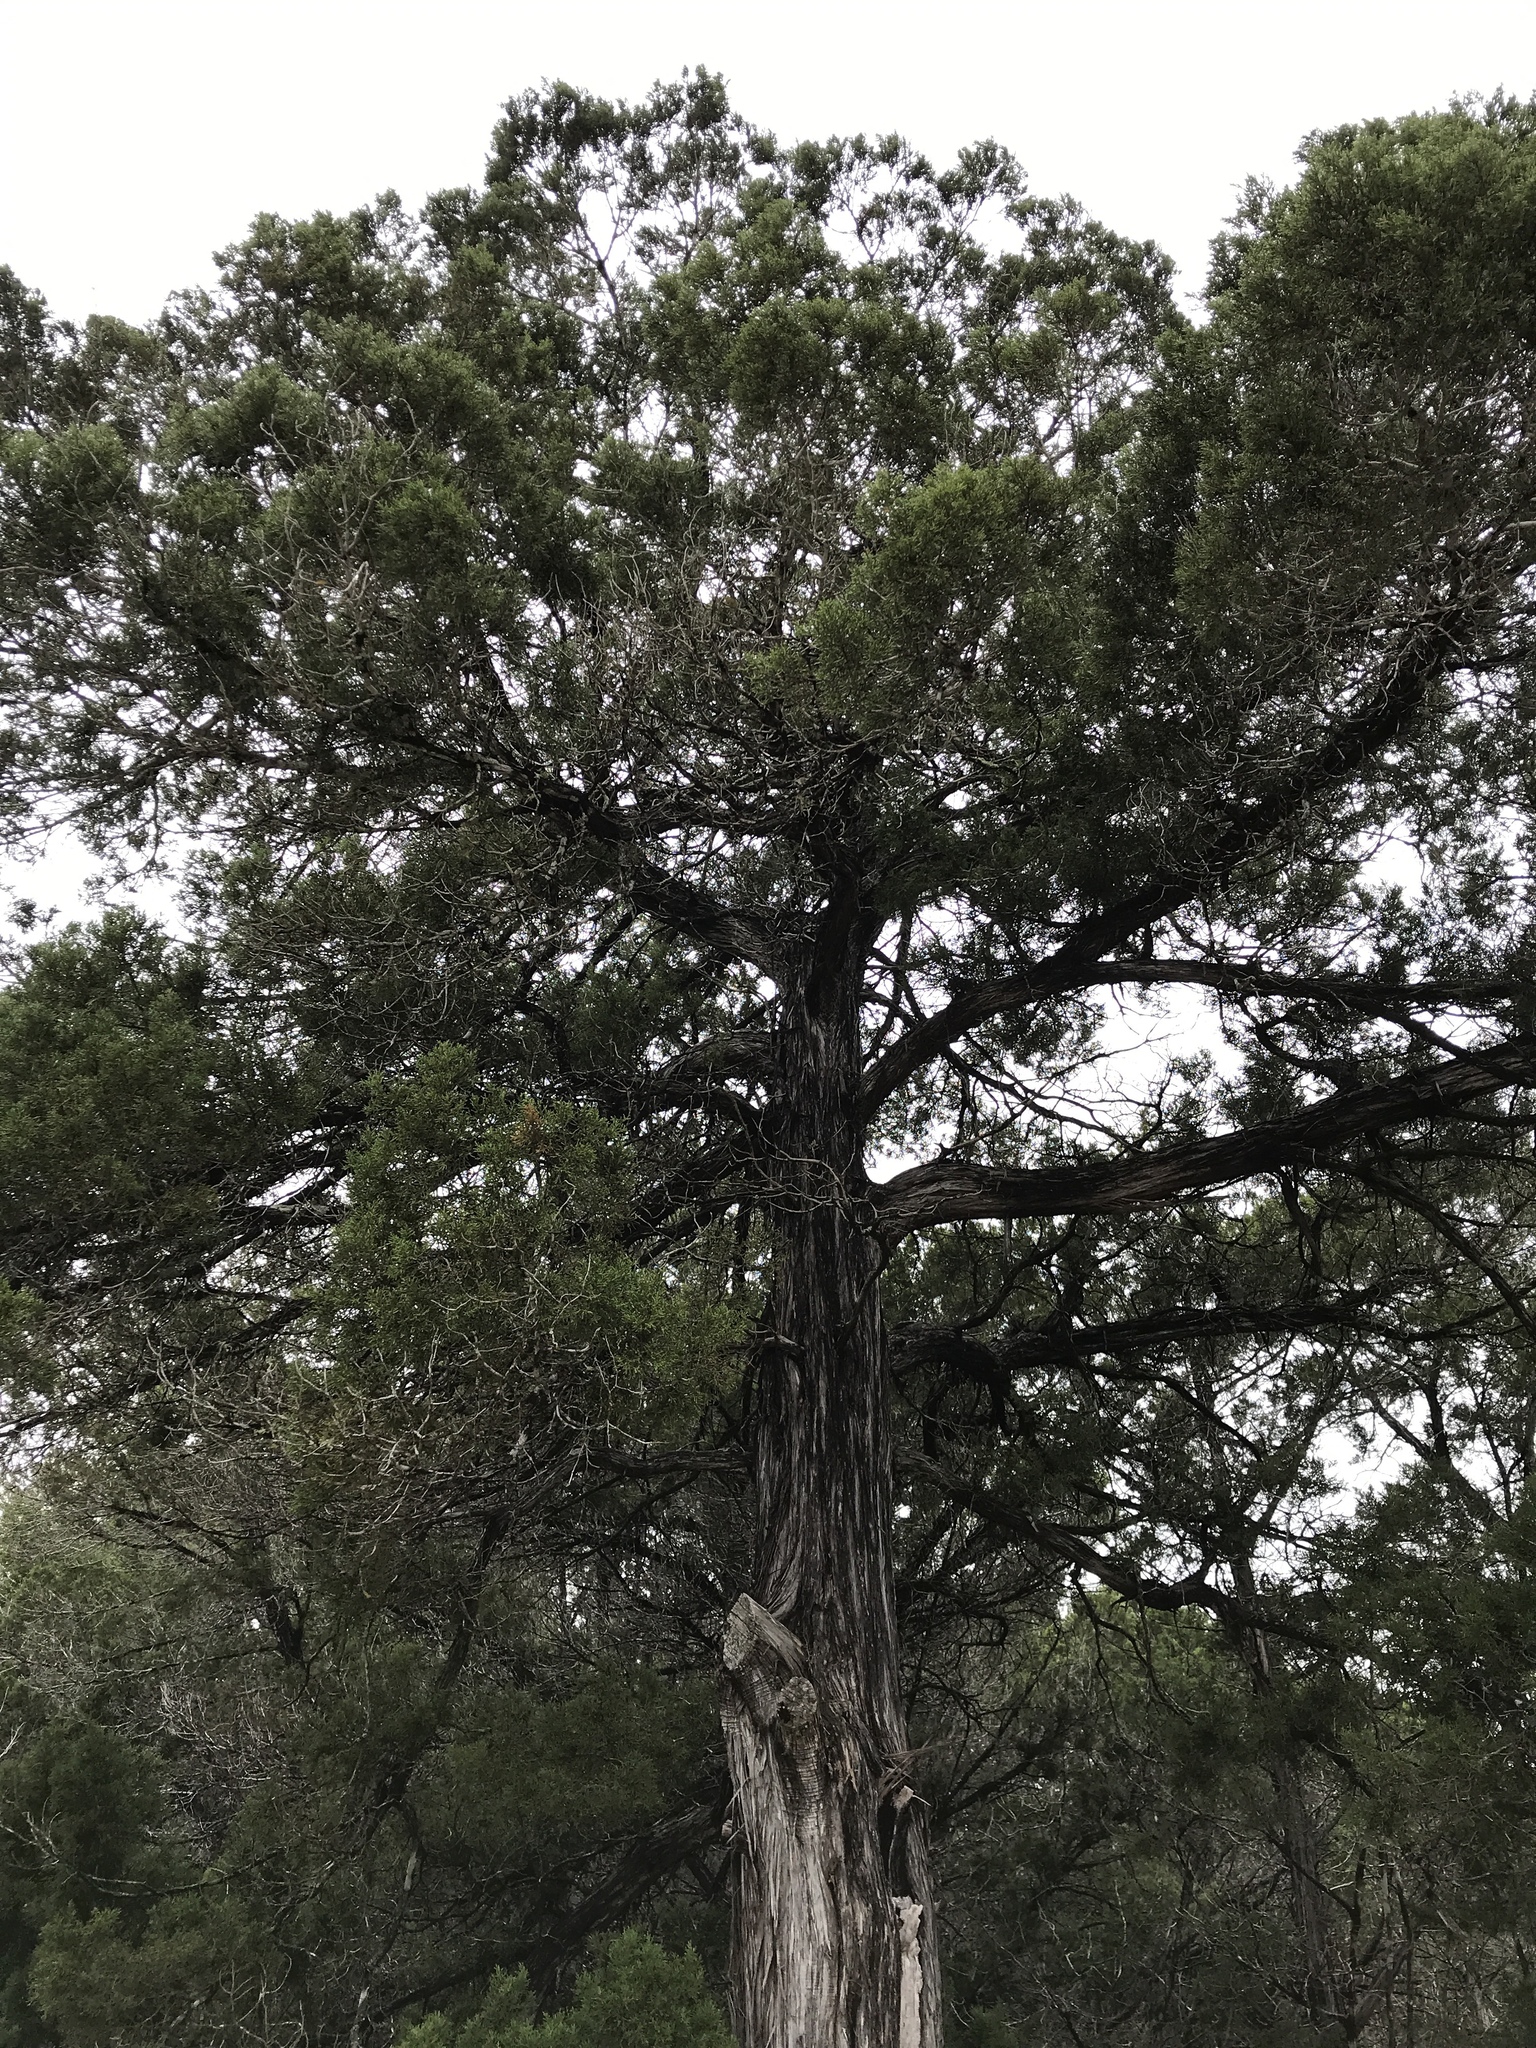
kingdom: Plantae
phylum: Tracheophyta
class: Pinopsida
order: Pinales
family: Cupressaceae
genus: Juniperus
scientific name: Juniperus ashei
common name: Mexican juniper
